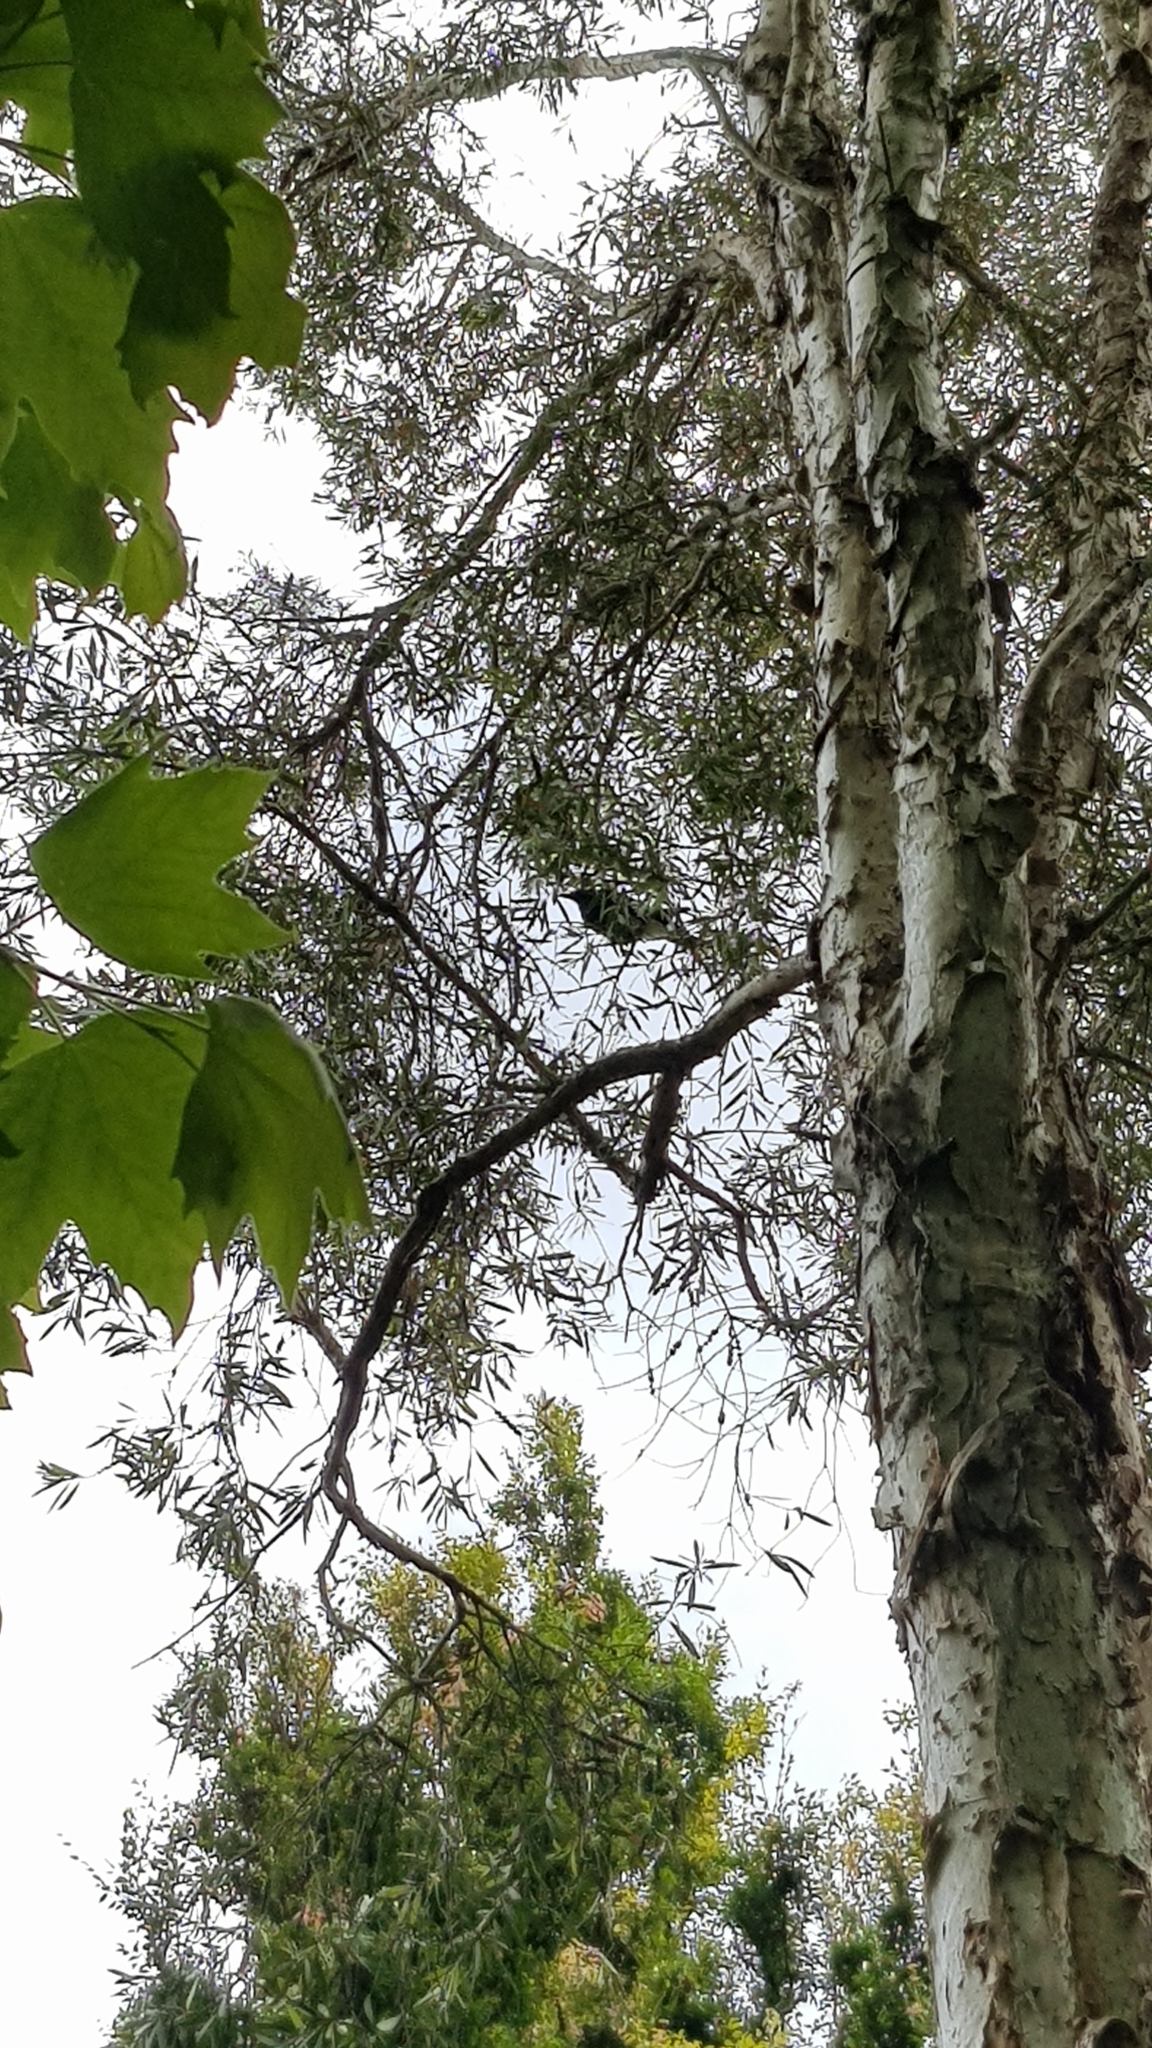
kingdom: Animalia
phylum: Chordata
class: Aves
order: Passeriformes
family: Cracticidae
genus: Strepera
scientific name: Strepera graculina
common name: Pied currawong
